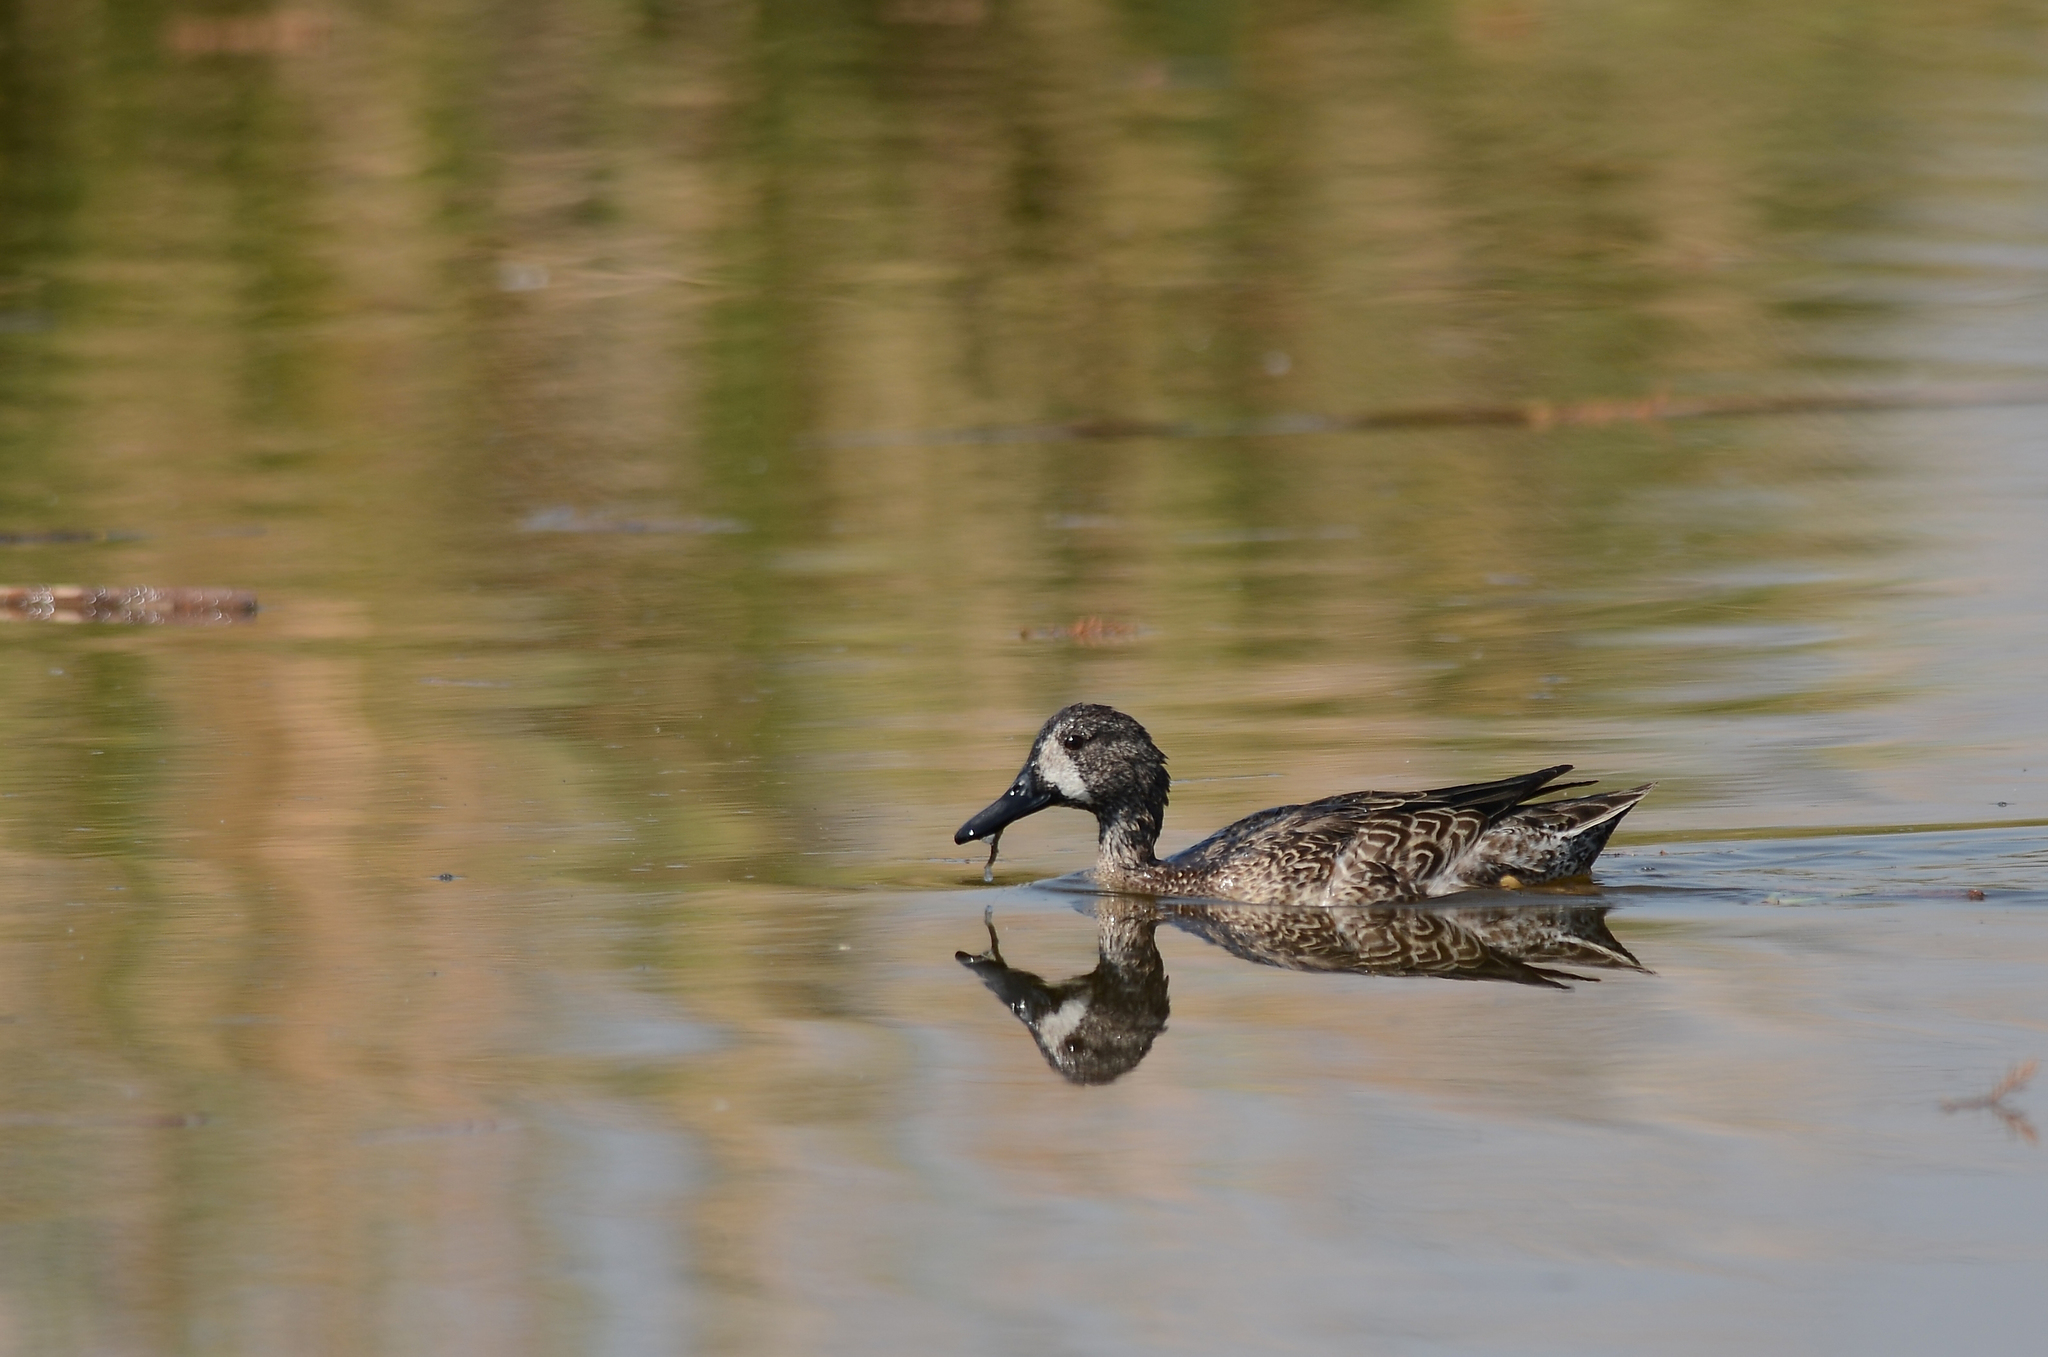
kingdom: Animalia
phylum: Chordata
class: Aves
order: Anseriformes
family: Anatidae
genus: Spatula
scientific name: Spatula discors
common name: Blue-winged teal
